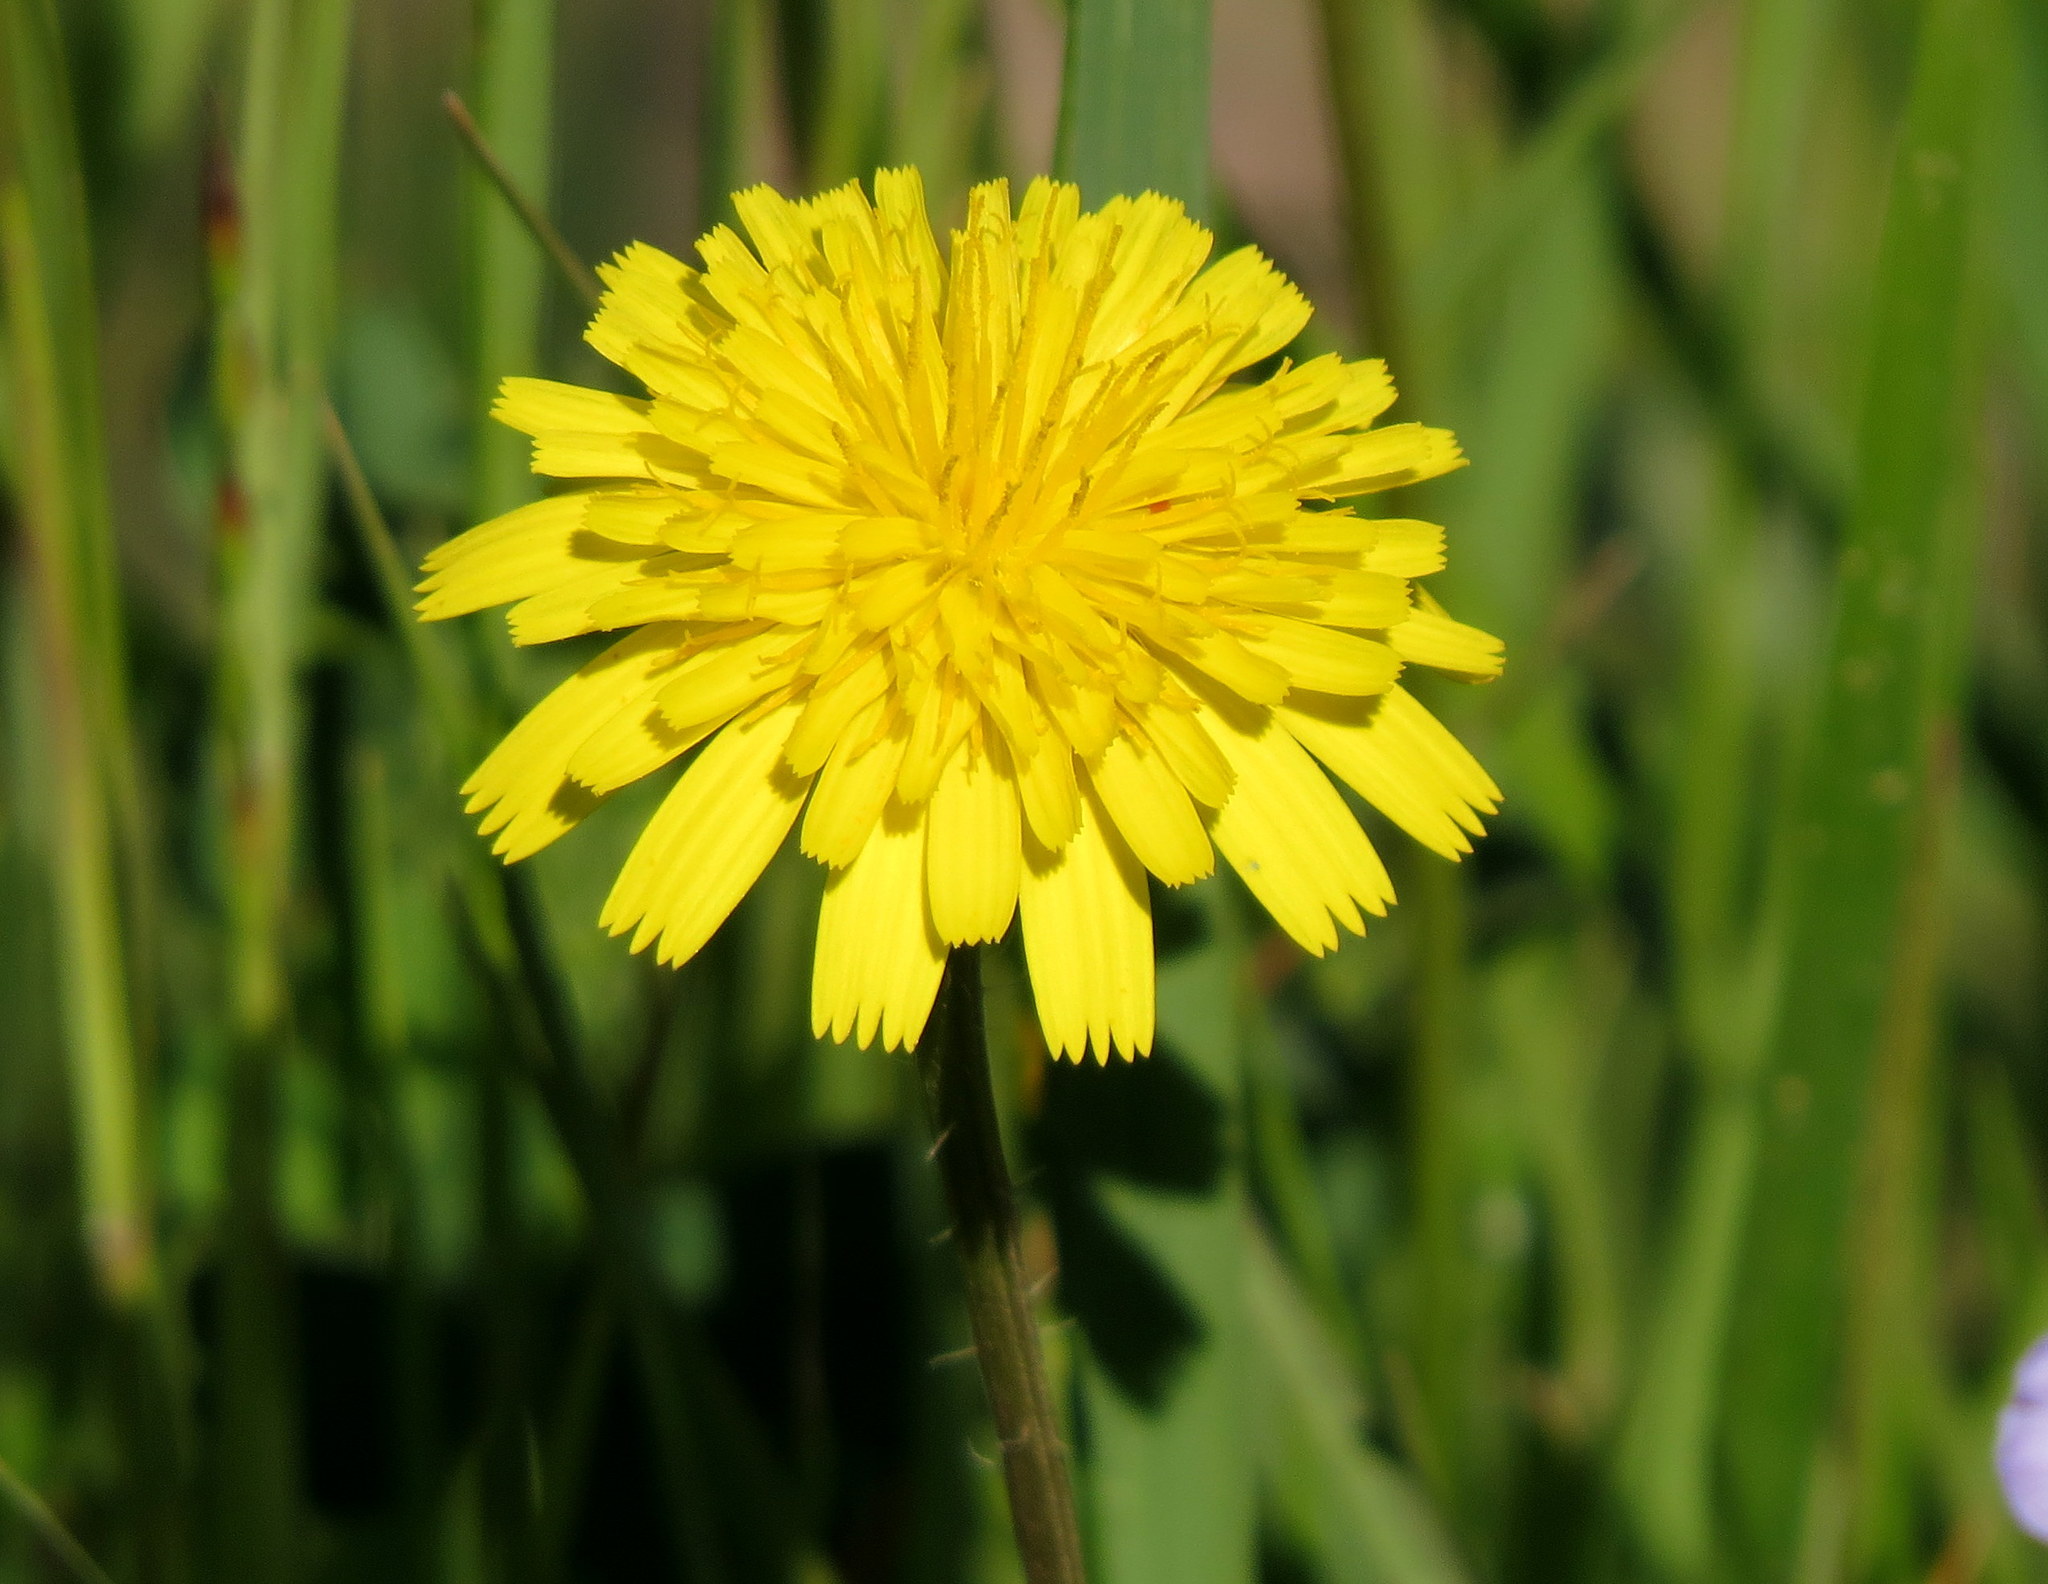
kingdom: Plantae
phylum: Tracheophyta
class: Magnoliopsida
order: Asterales
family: Asteraceae
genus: Hypochaeris
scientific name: Hypochaeris radicata
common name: Flatweed
